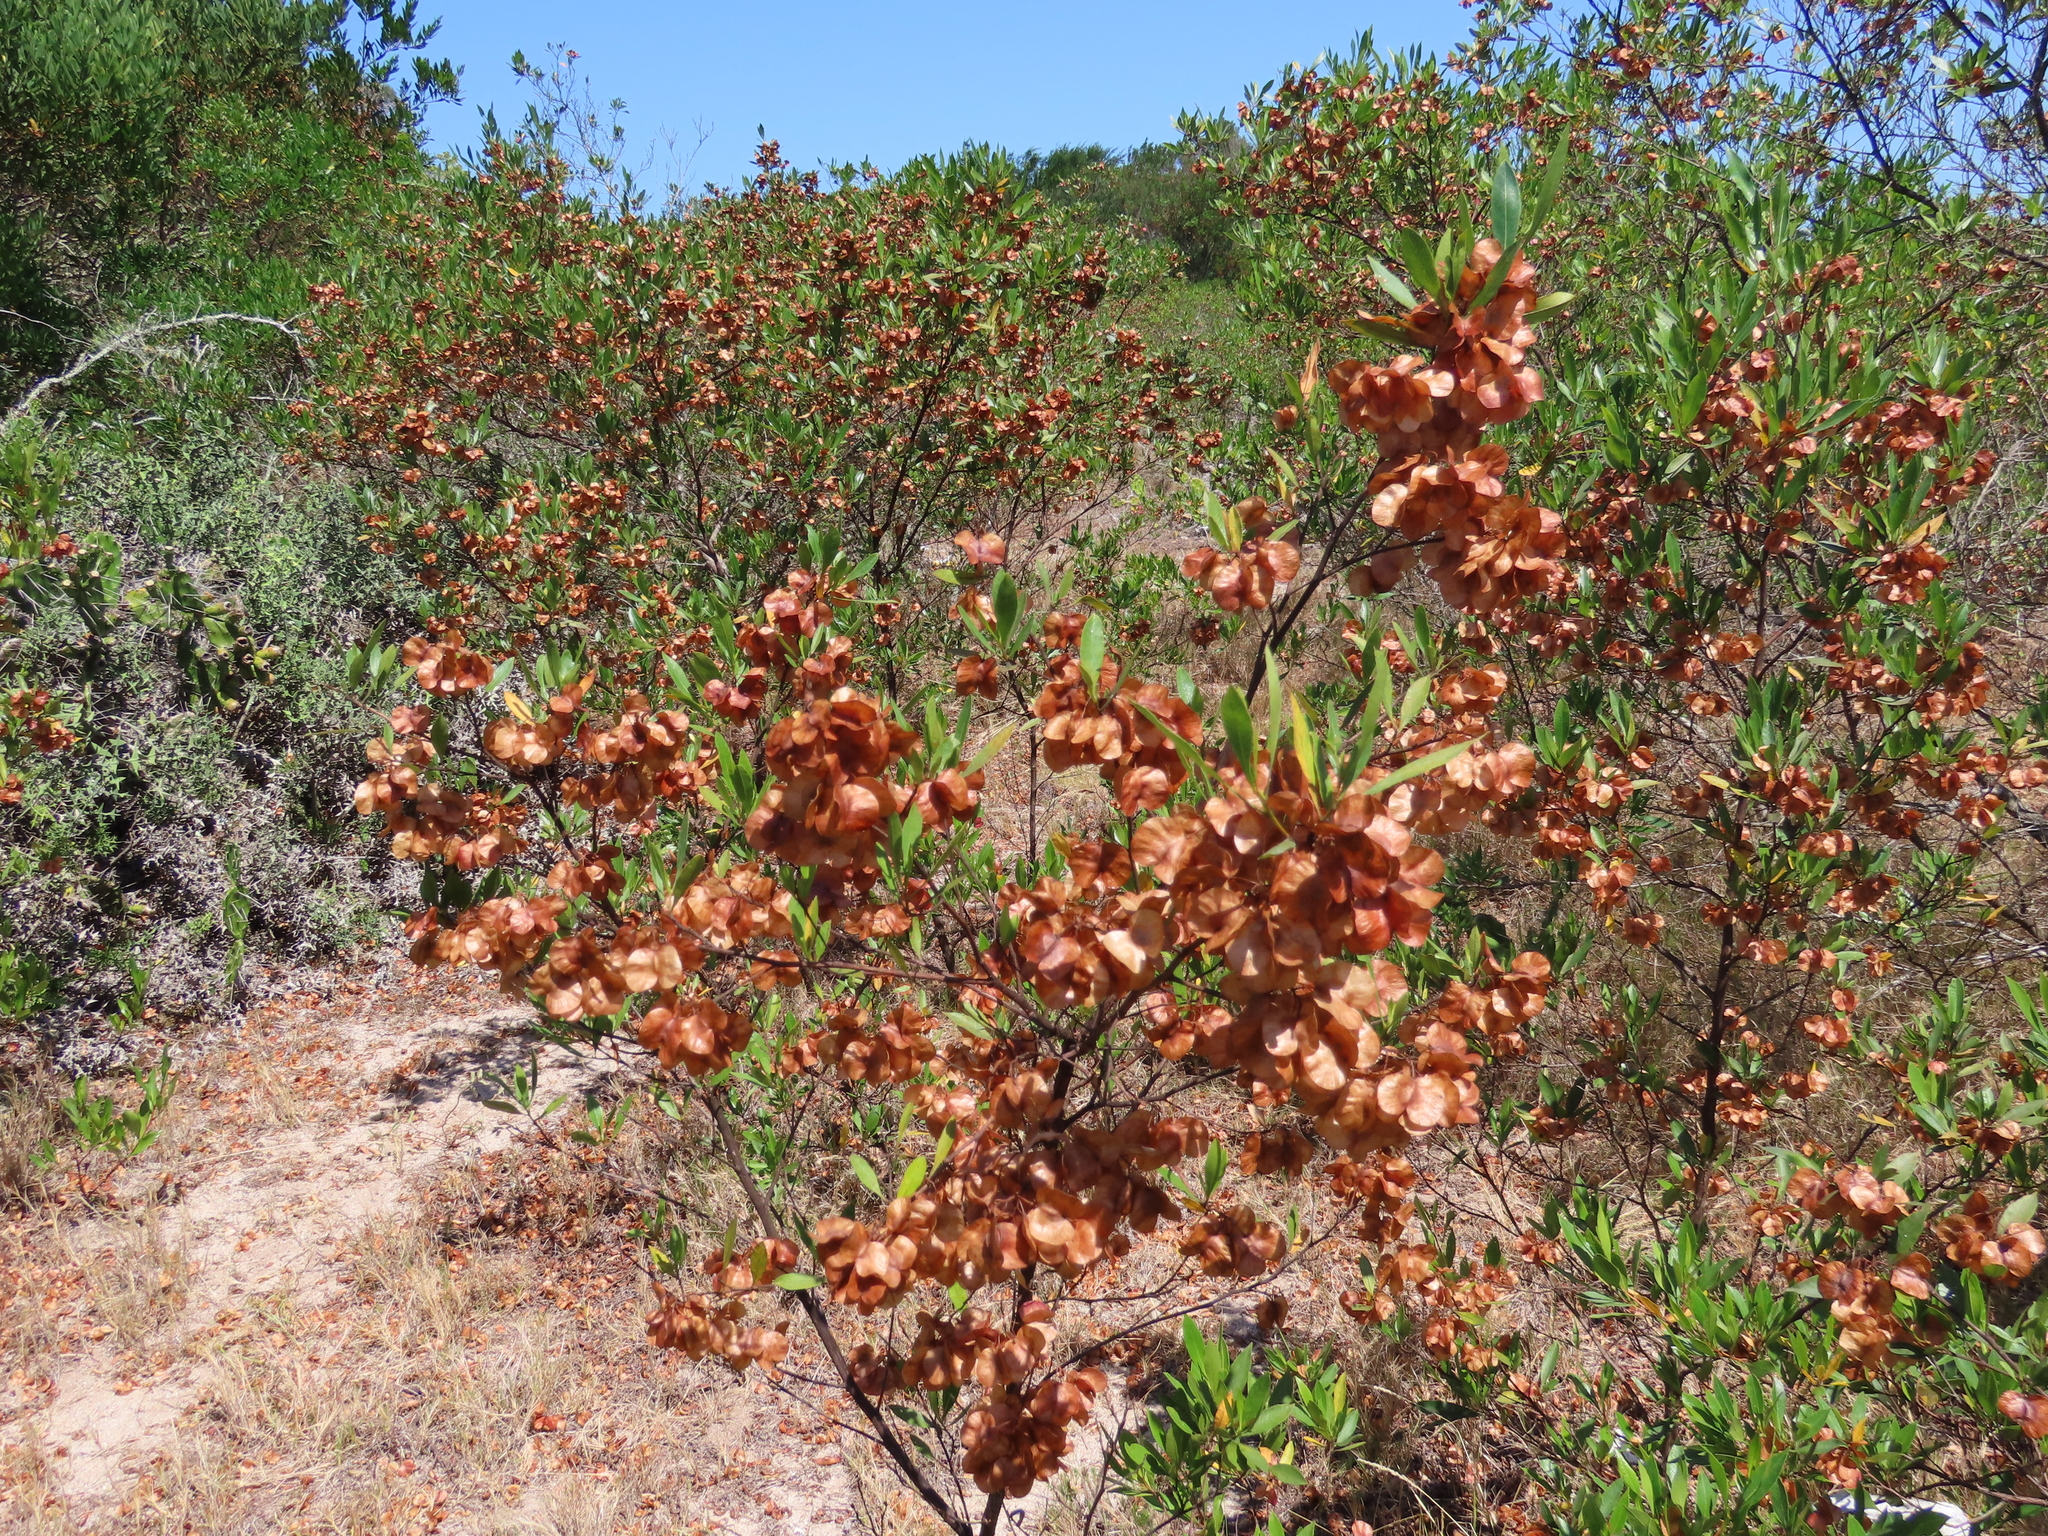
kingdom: Plantae
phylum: Tracheophyta
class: Magnoliopsida
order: Sapindales
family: Sapindaceae
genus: Dodonaea
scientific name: Dodonaea viscosa
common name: Hopbush
